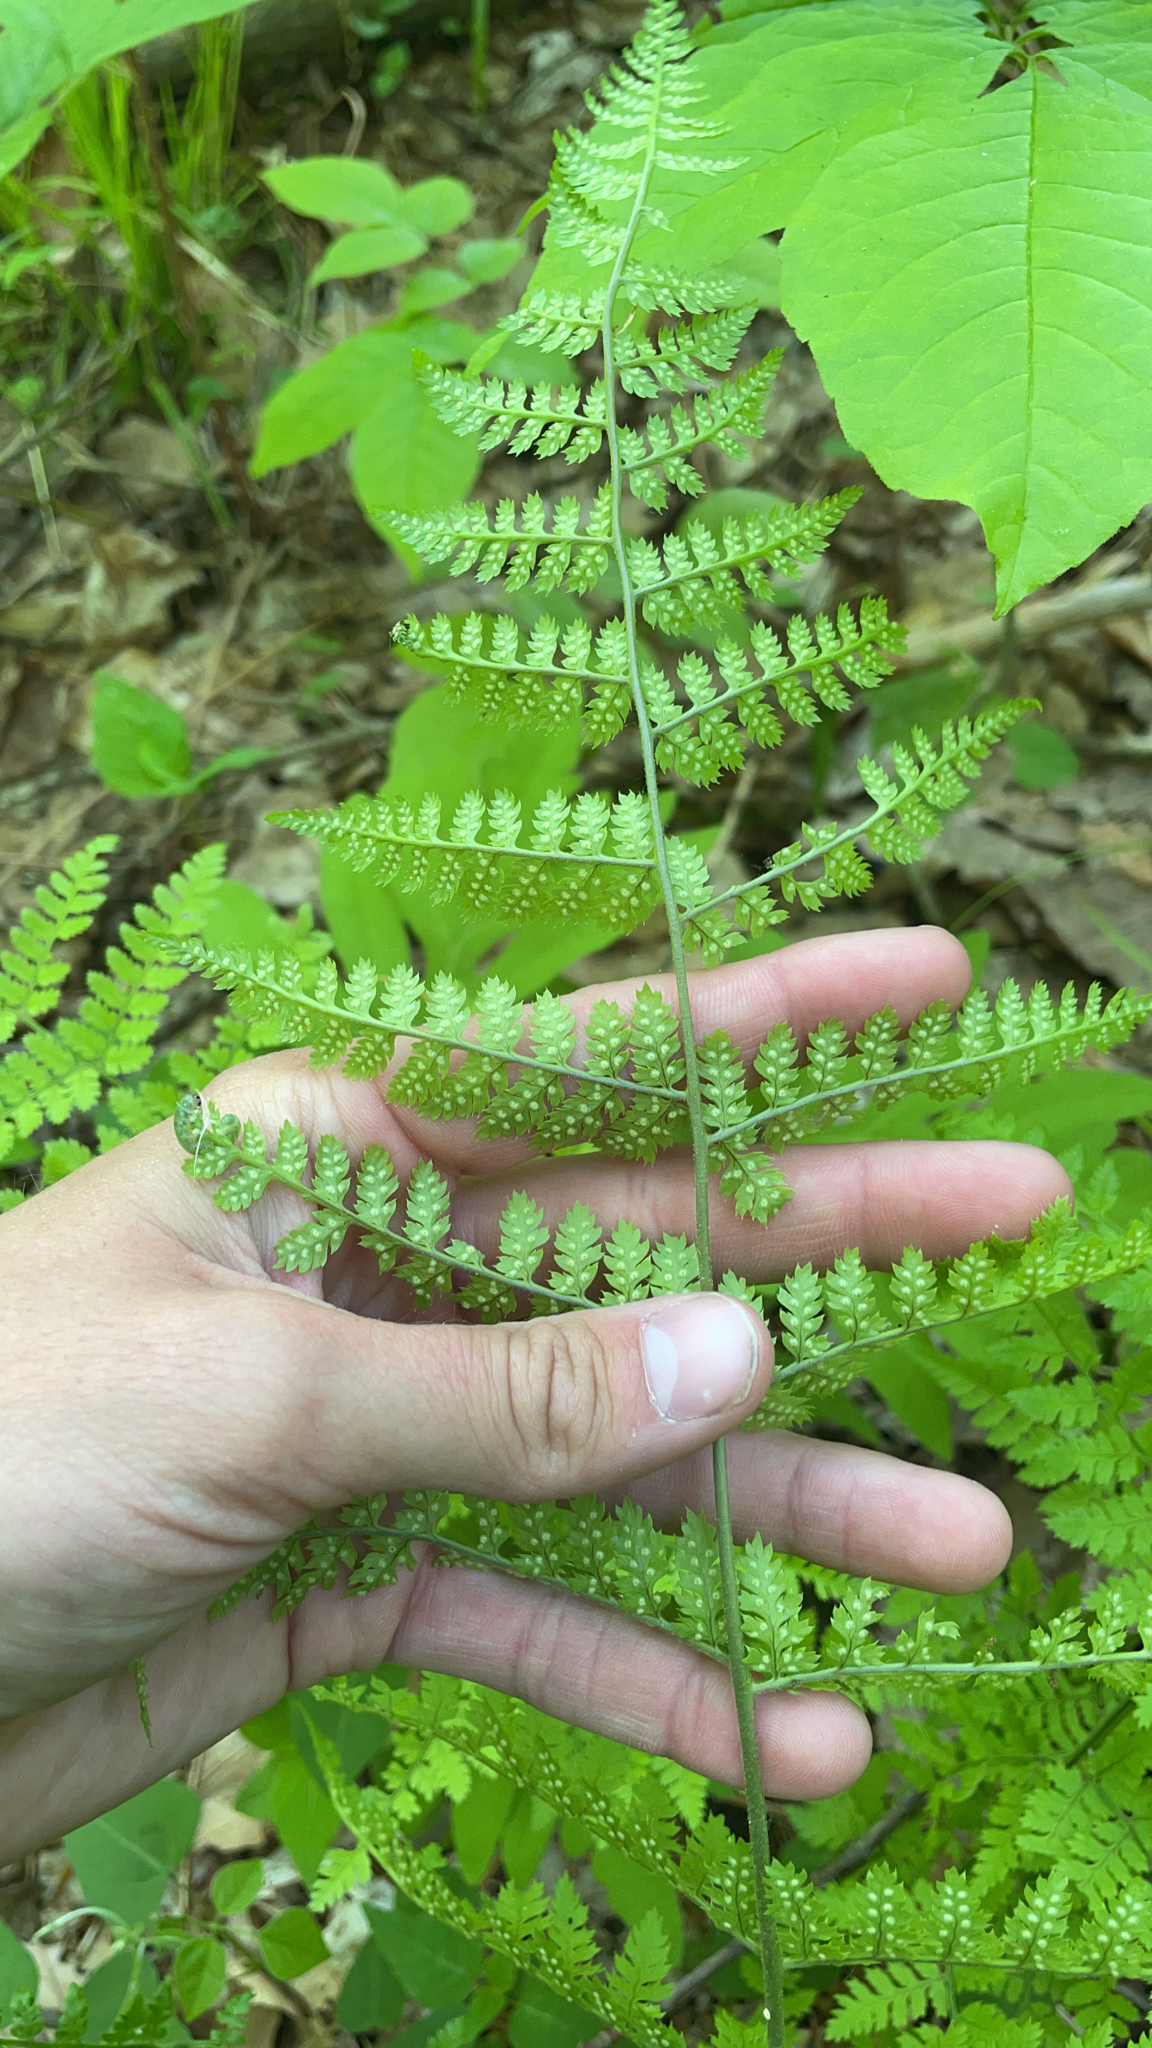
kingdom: Plantae
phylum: Tracheophyta
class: Polypodiopsida
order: Polypodiales
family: Dryopteridaceae
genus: Dryopteris
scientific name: Dryopteris intermedia
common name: Evergreen wood fern
